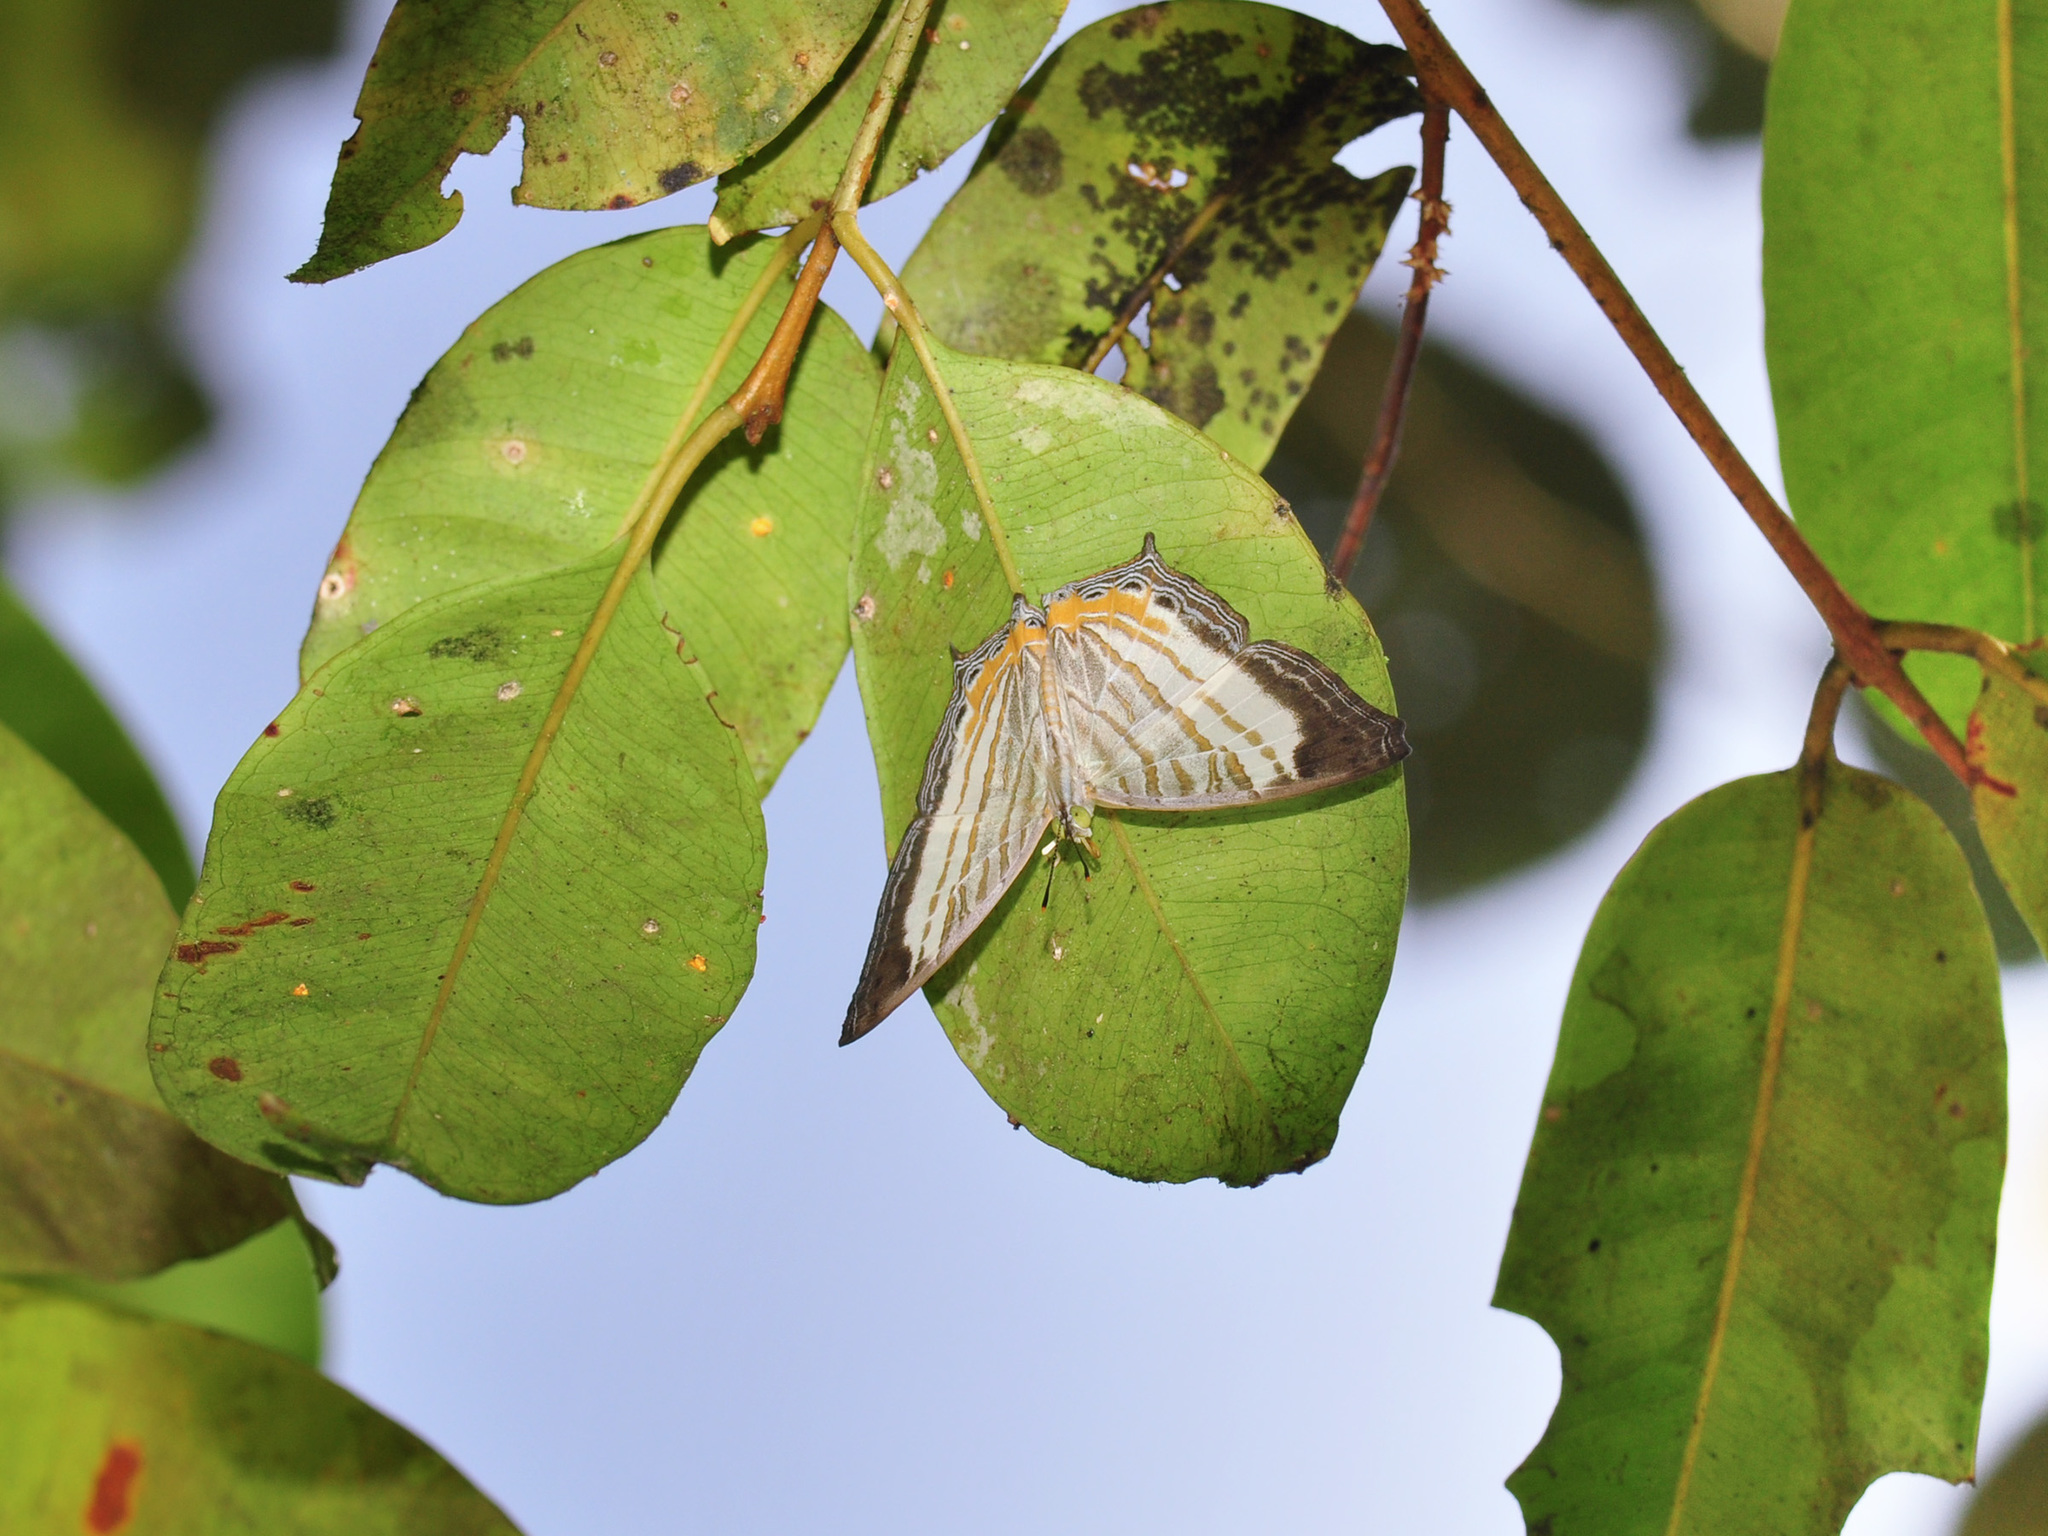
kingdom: Animalia
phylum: Arthropoda
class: Insecta
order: Lepidoptera
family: Nymphalidae
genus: Cyrestis
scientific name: Cyrestis themire
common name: Little mapwing
